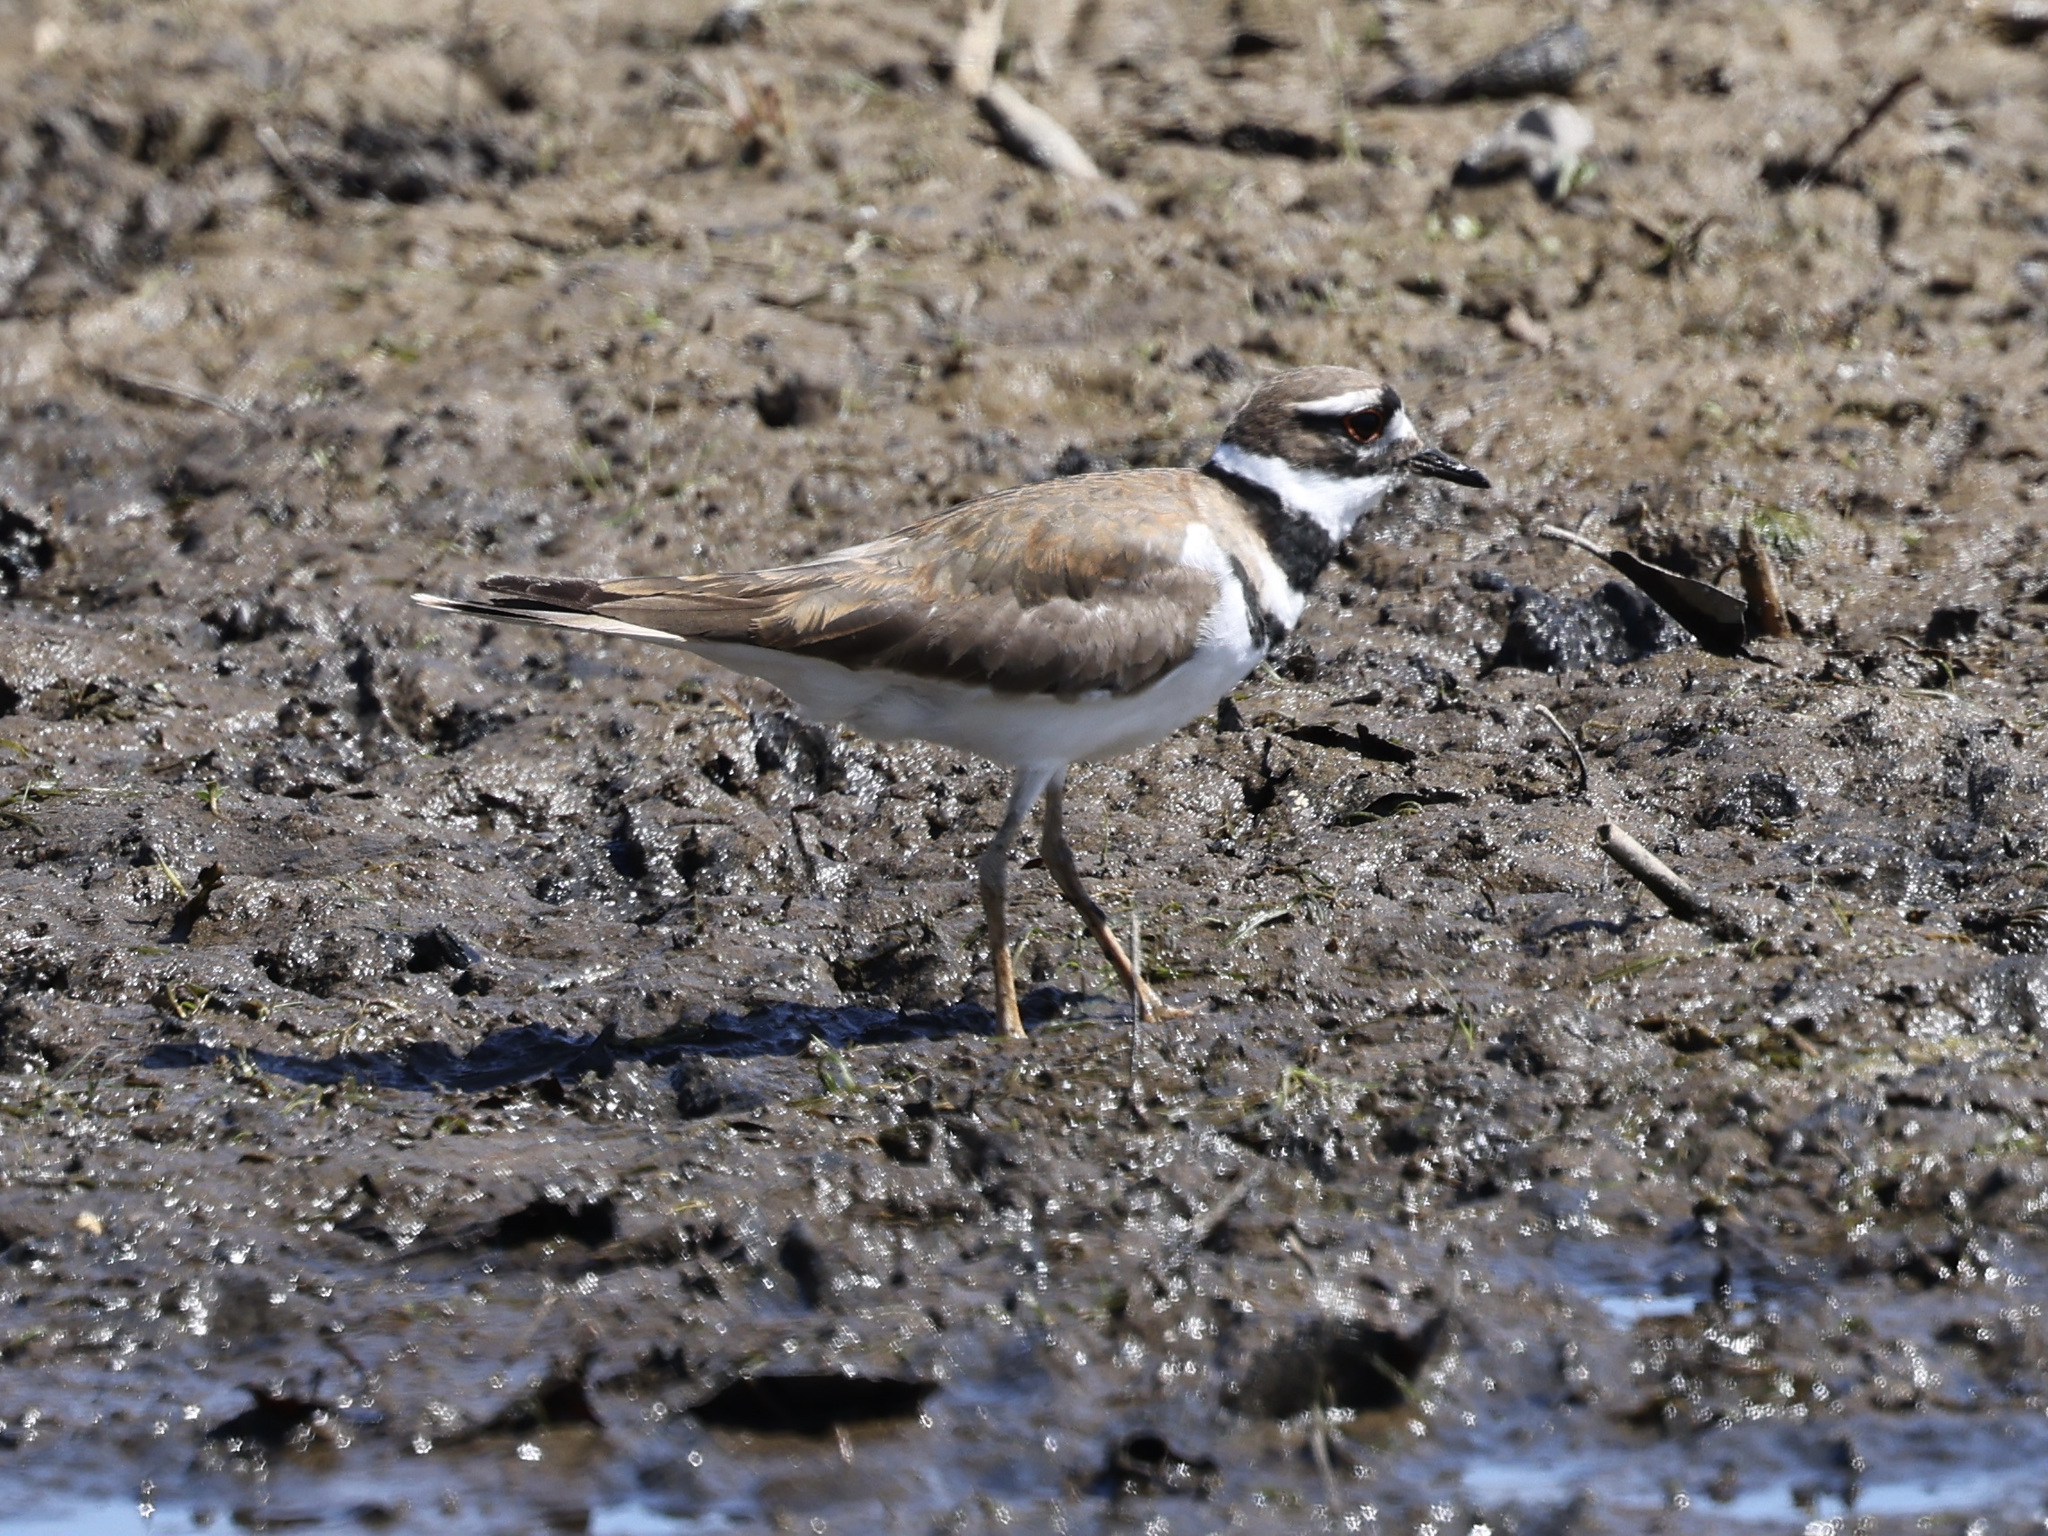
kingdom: Animalia
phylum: Chordata
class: Aves
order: Charadriiformes
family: Charadriidae
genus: Charadrius
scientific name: Charadrius vociferus
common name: Killdeer
